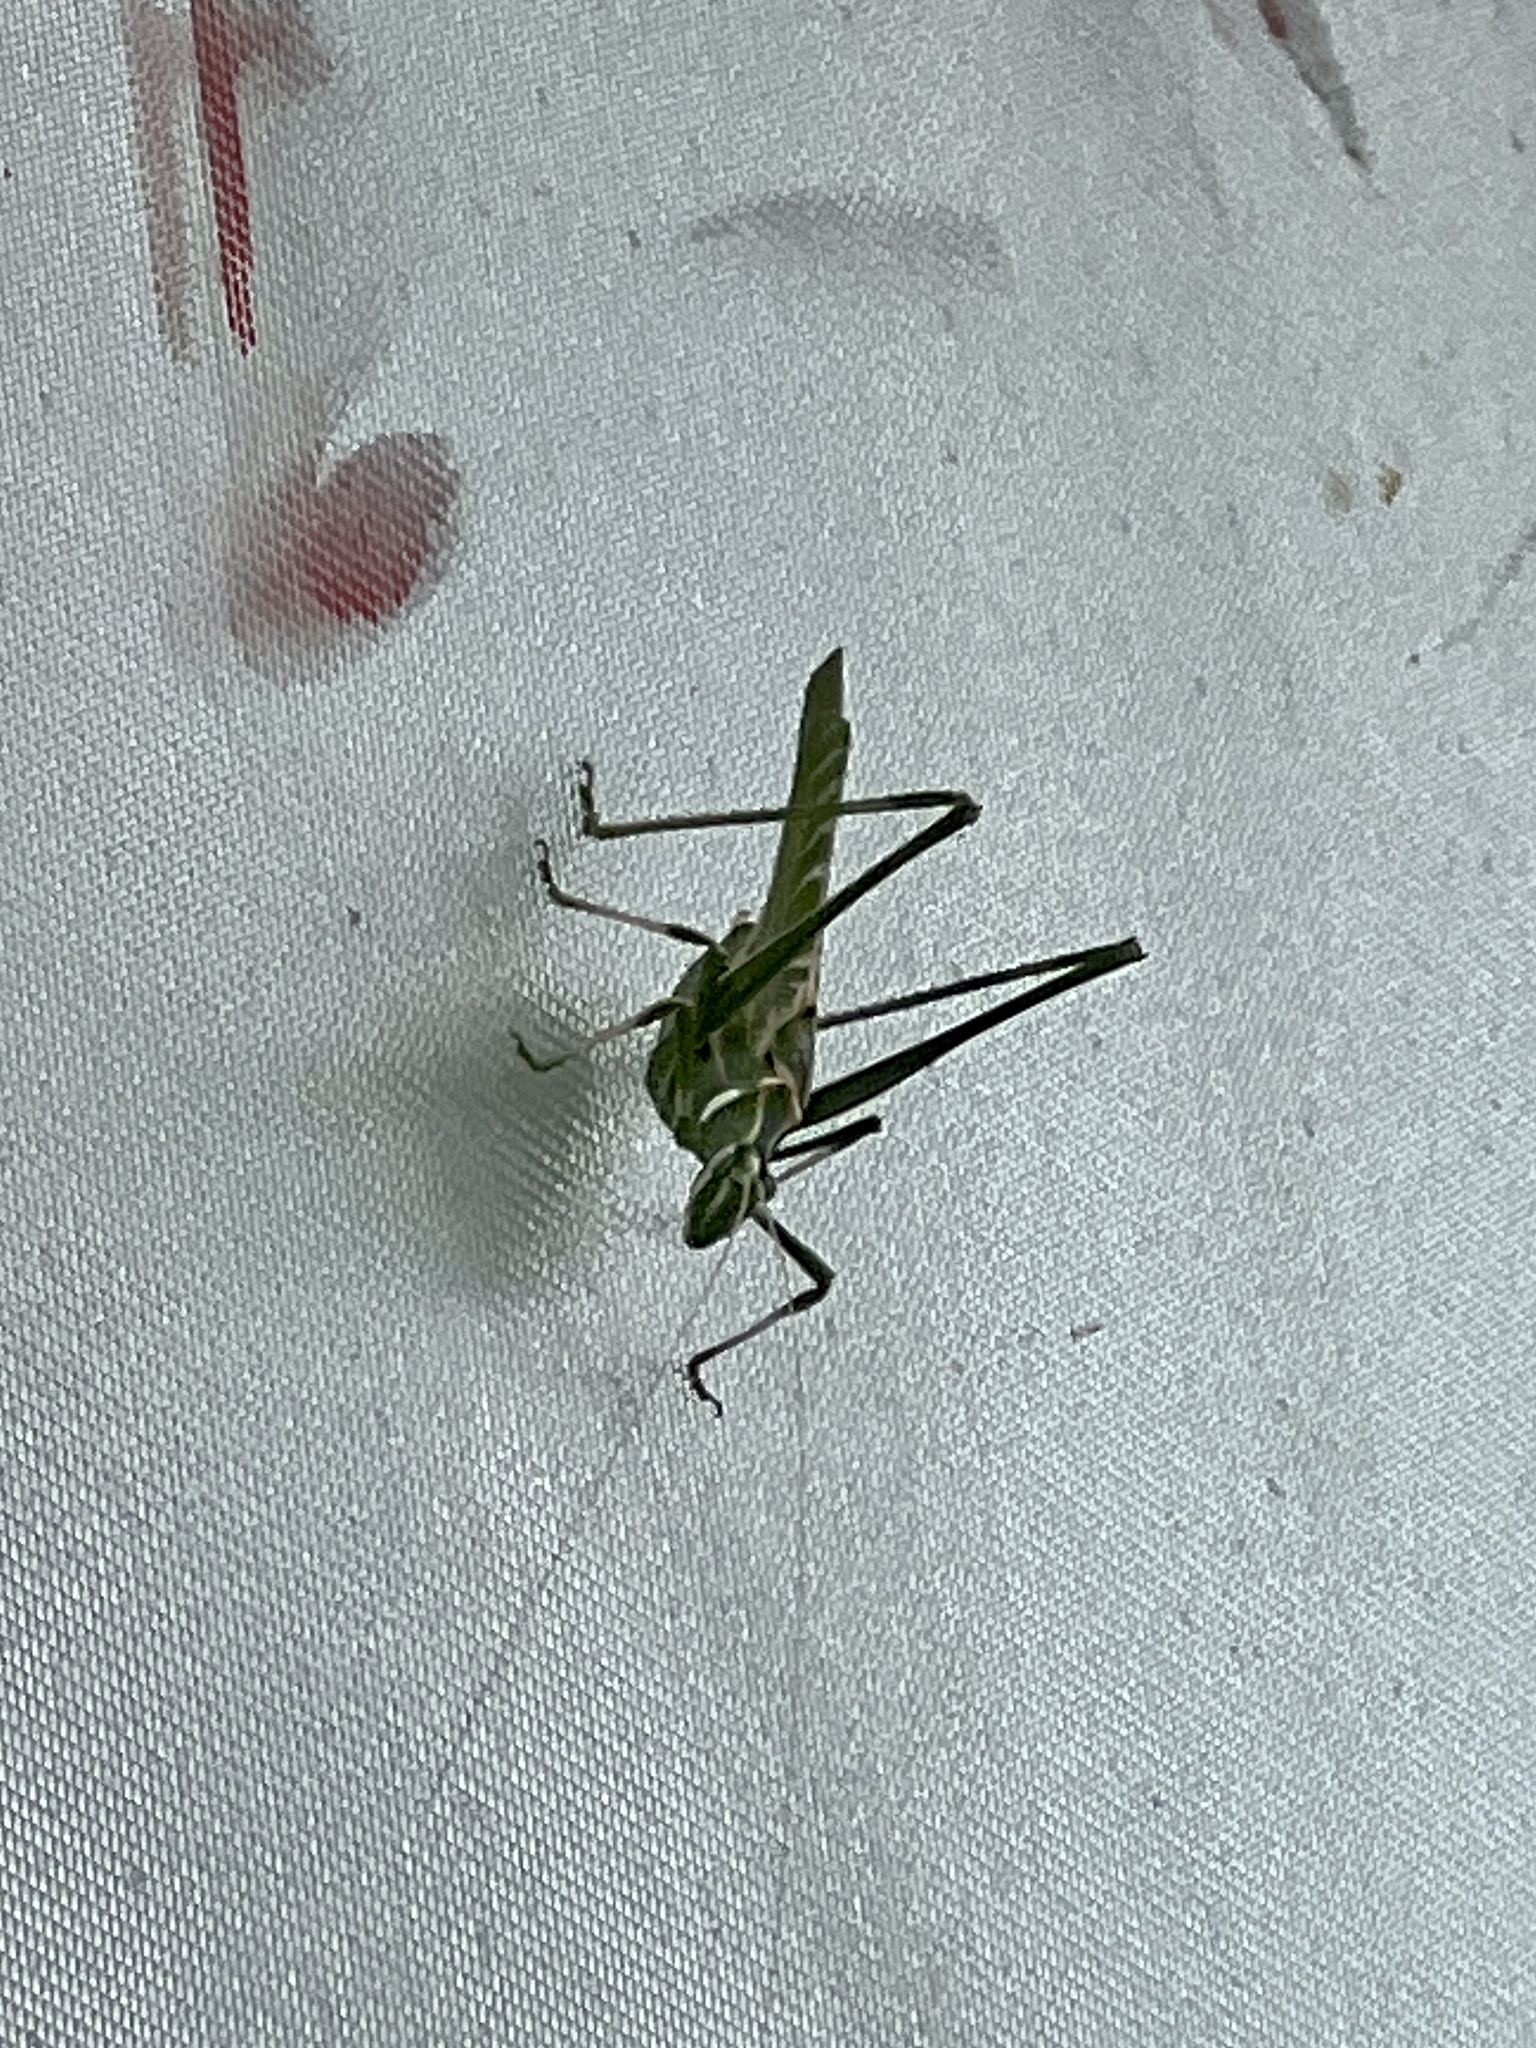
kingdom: Animalia
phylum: Arthropoda
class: Insecta
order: Orthoptera
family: Tettigoniidae
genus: Insara
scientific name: Insara elegans
